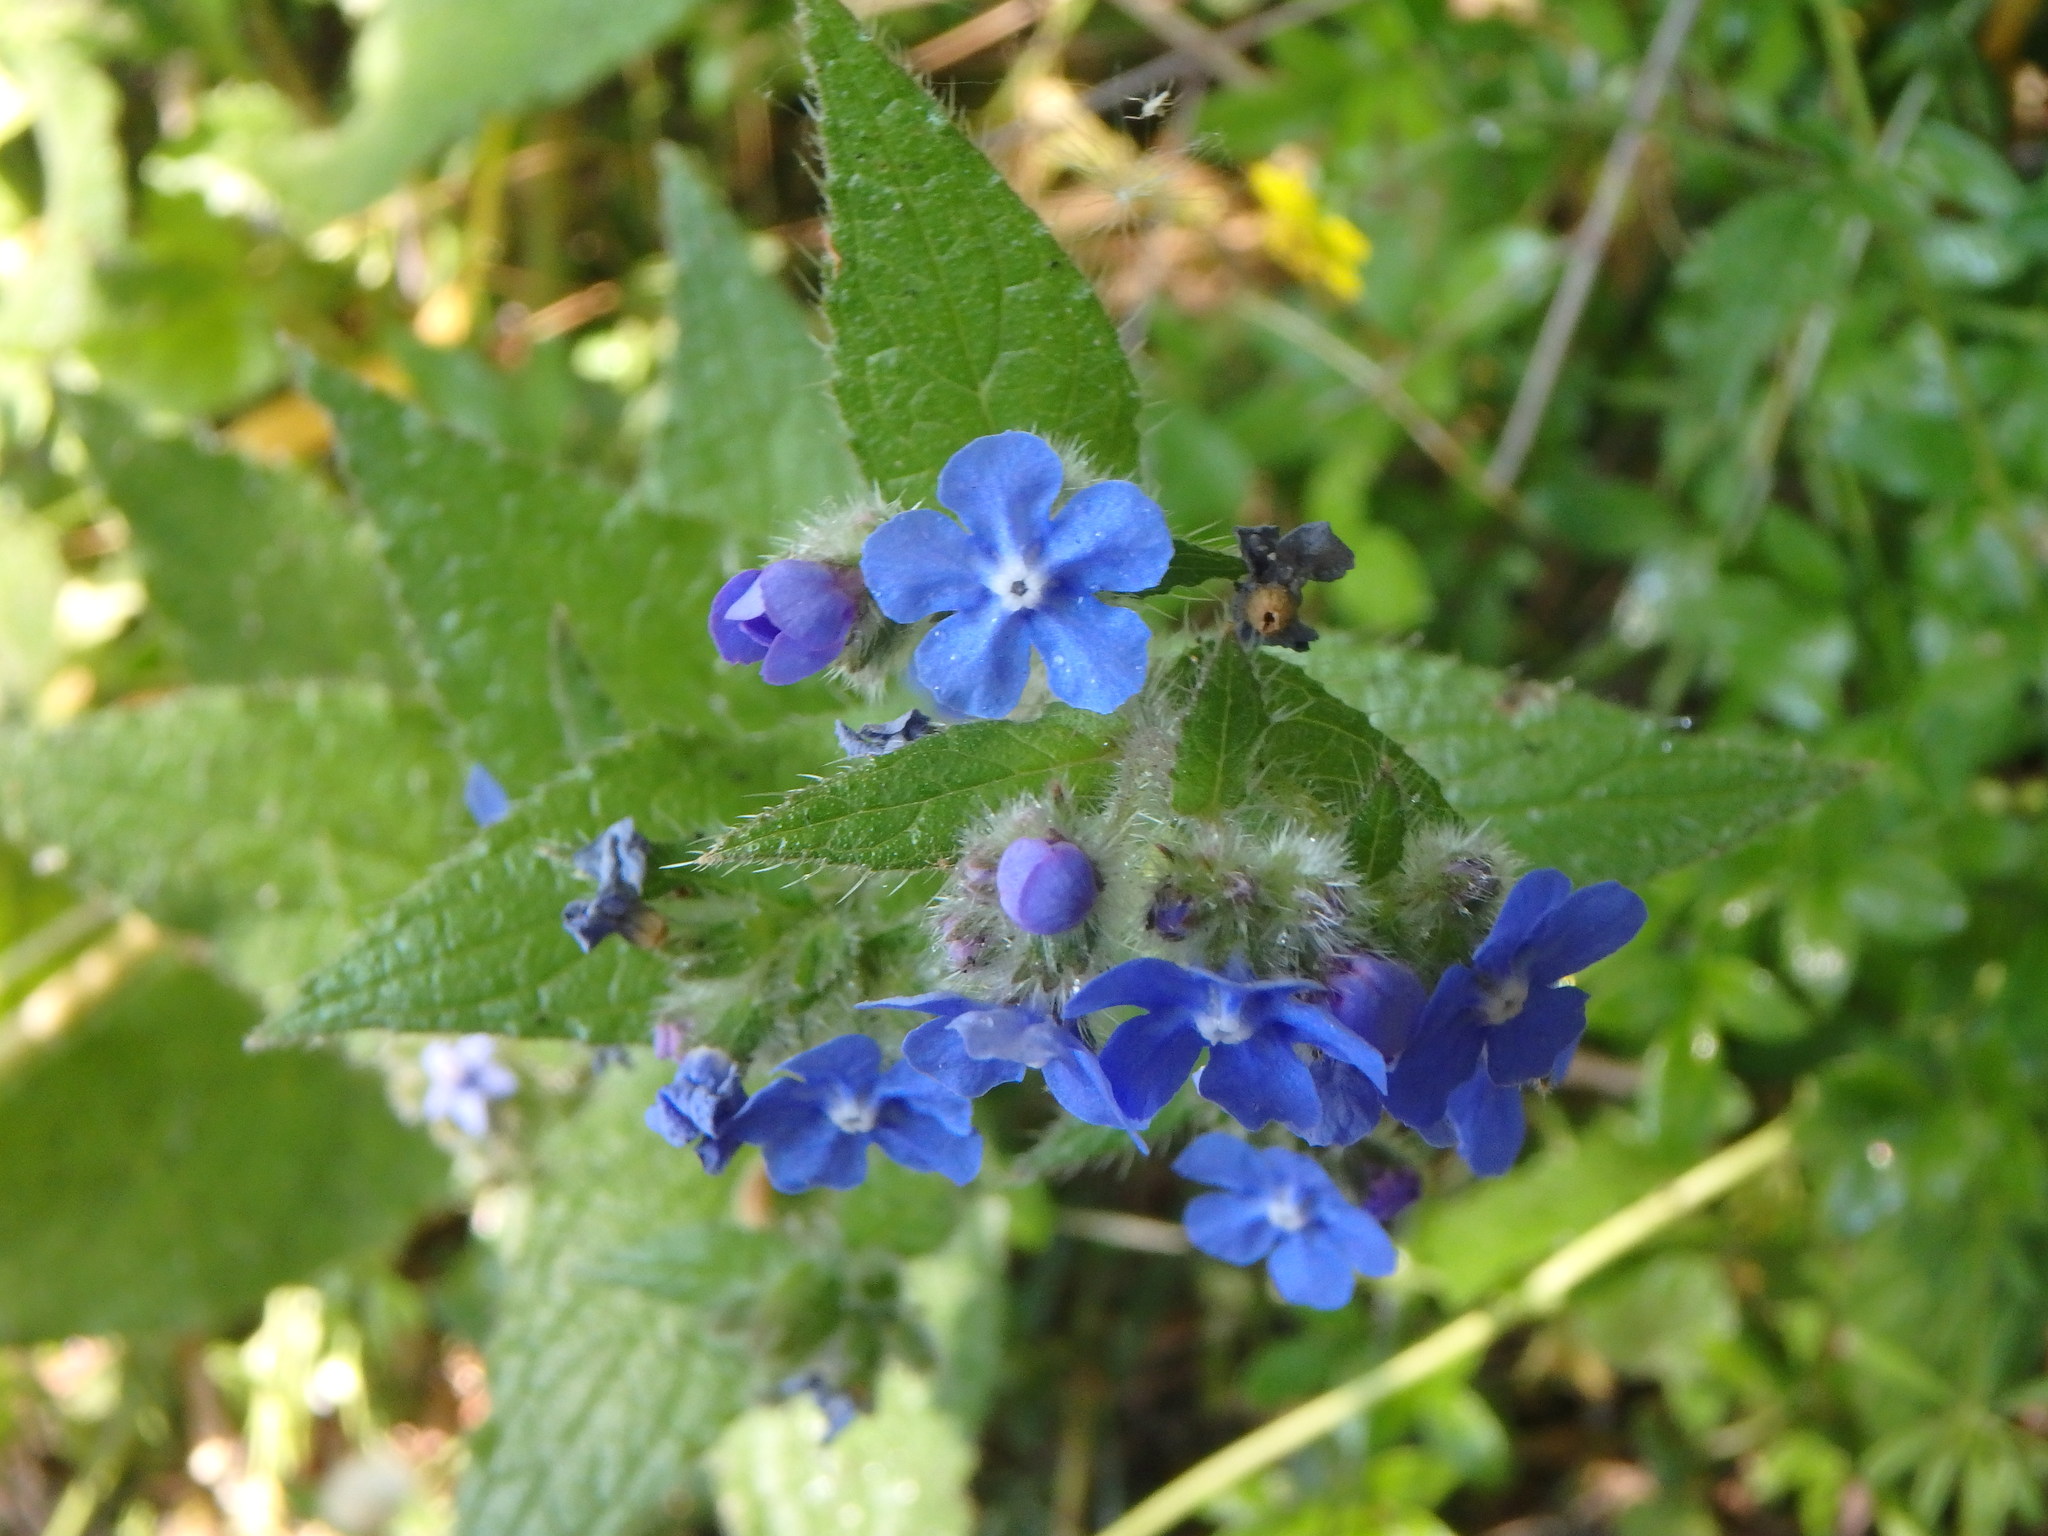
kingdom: Plantae
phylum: Tracheophyta
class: Magnoliopsida
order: Boraginales
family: Boraginaceae
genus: Pentaglottis
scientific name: Pentaglottis sempervirens
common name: Green alkanet
